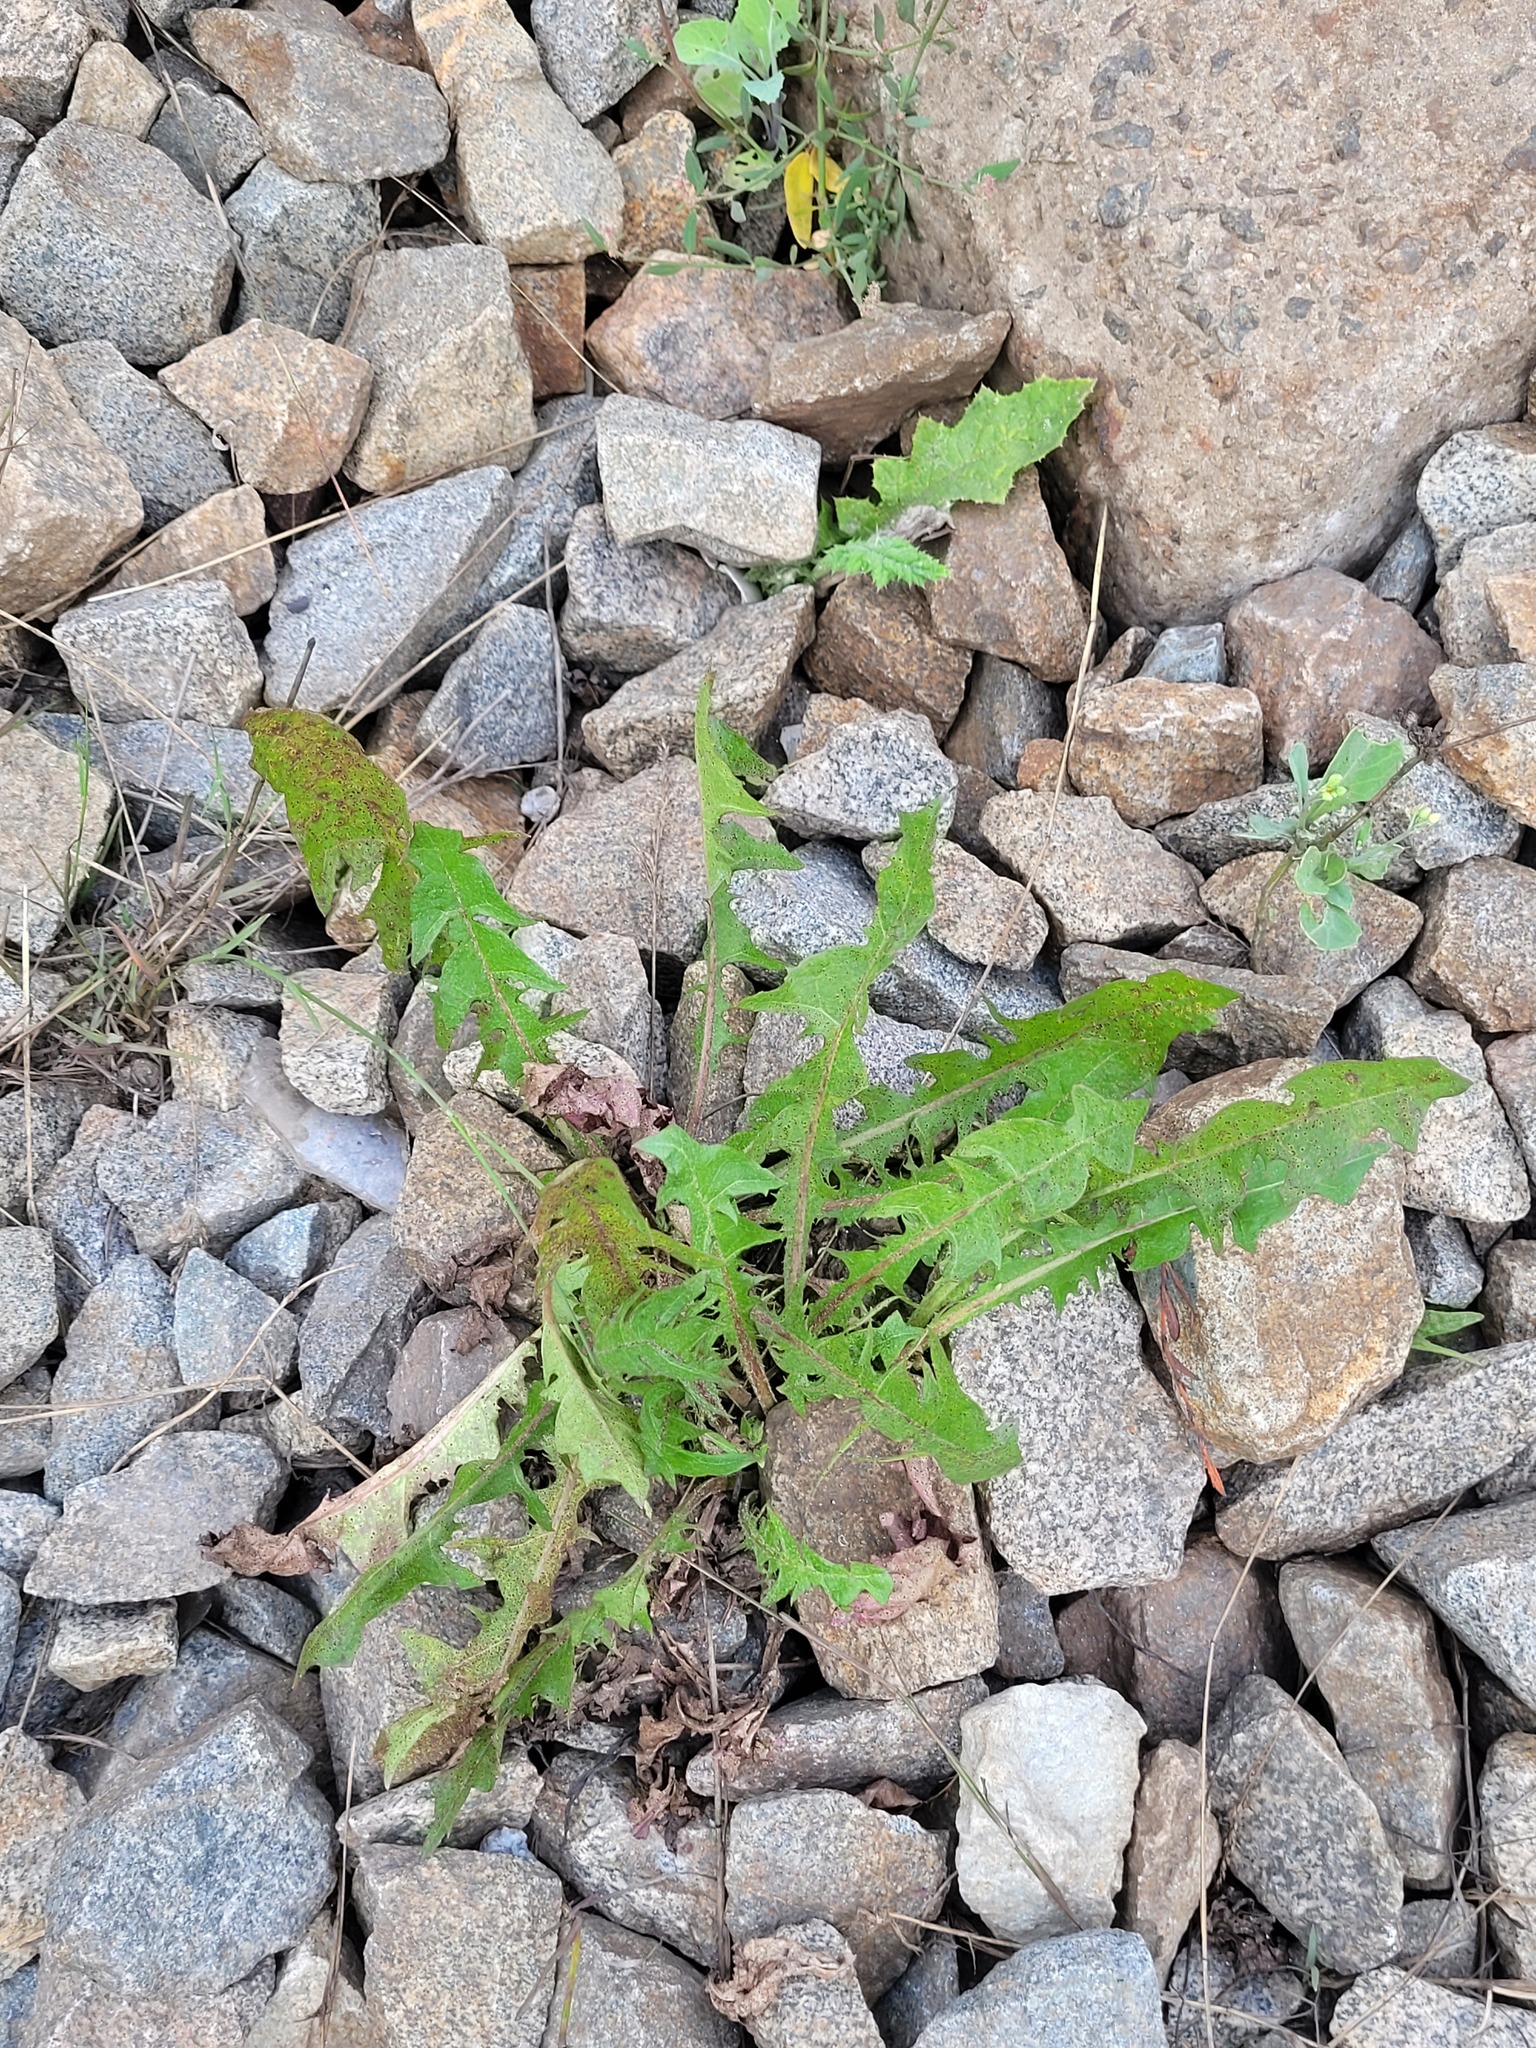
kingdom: Plantae
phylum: Tracheophyta
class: Magnoliopsida
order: Asterales
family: Asteraceae
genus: Taraxacum
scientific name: Taraxacum officinale
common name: Common dandelion
